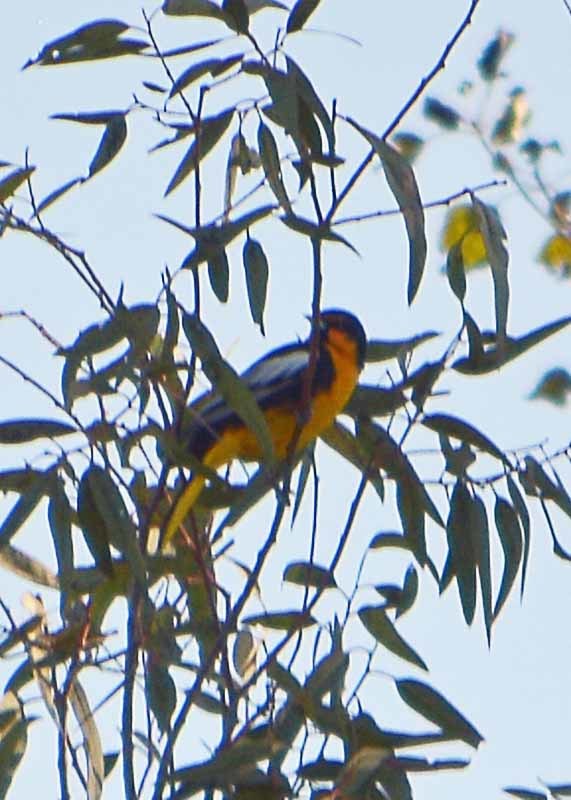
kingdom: Animalia
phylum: Chordata
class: Aves
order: Passeriformes
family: Icteridae
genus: Icterus
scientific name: Icterus abeillei
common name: Black-backed oriole
